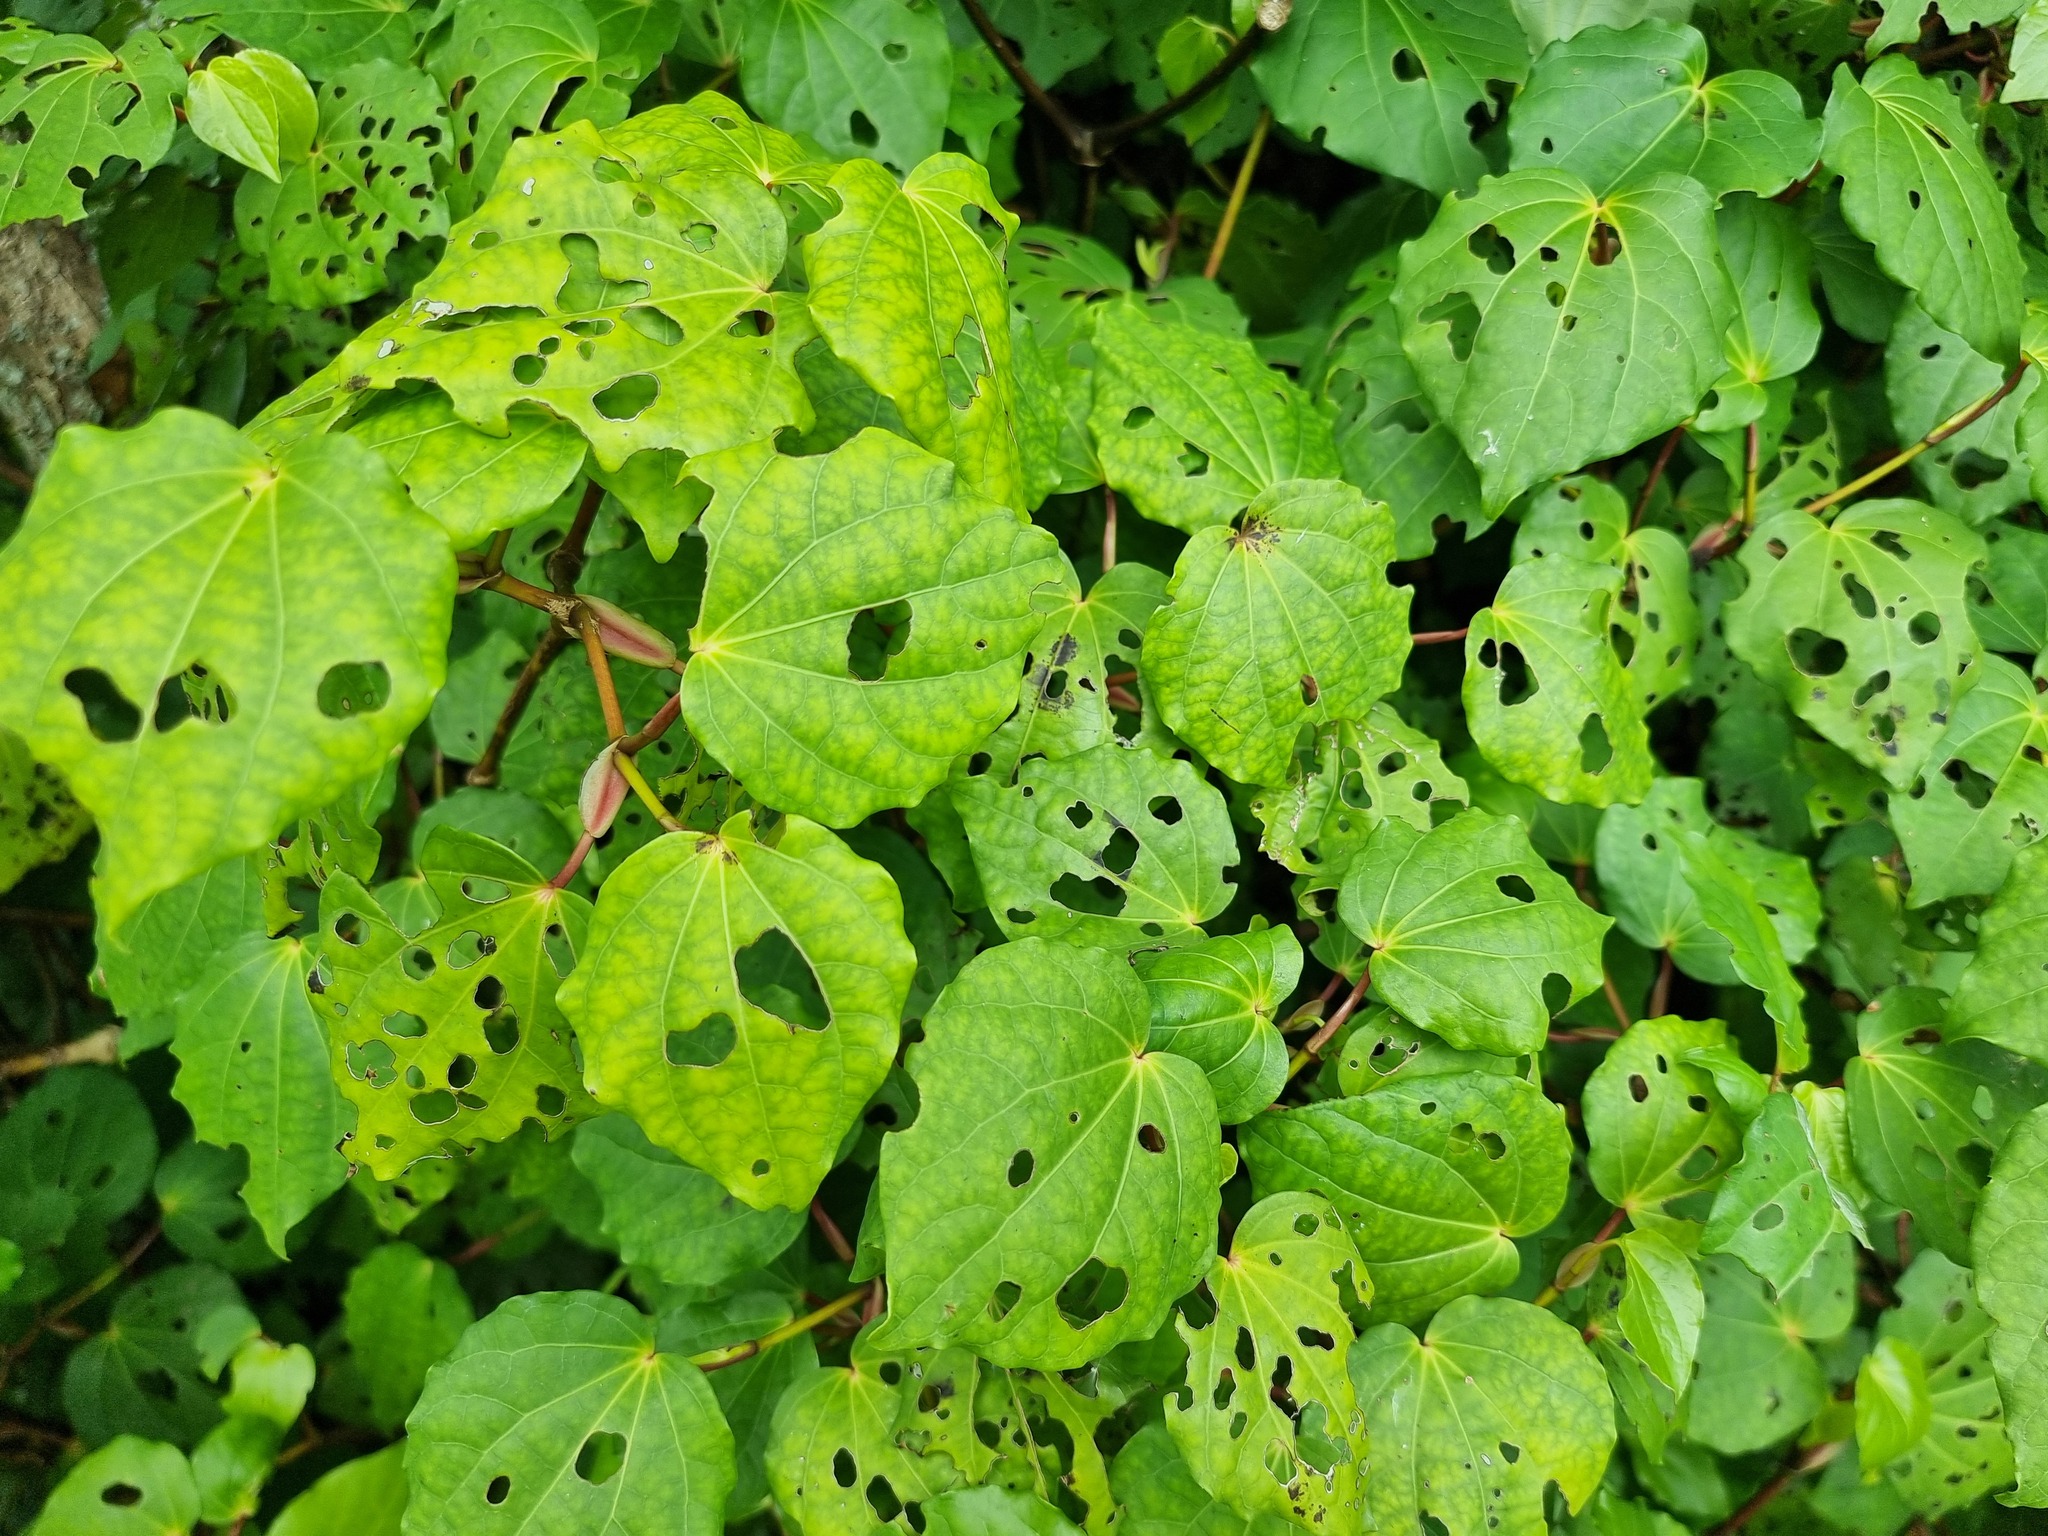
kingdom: Plantae
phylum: Tracheophyta
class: Magnoliopsida
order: Piperales
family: Piperaceae
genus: Macropiper
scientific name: Macropiper excelsum
